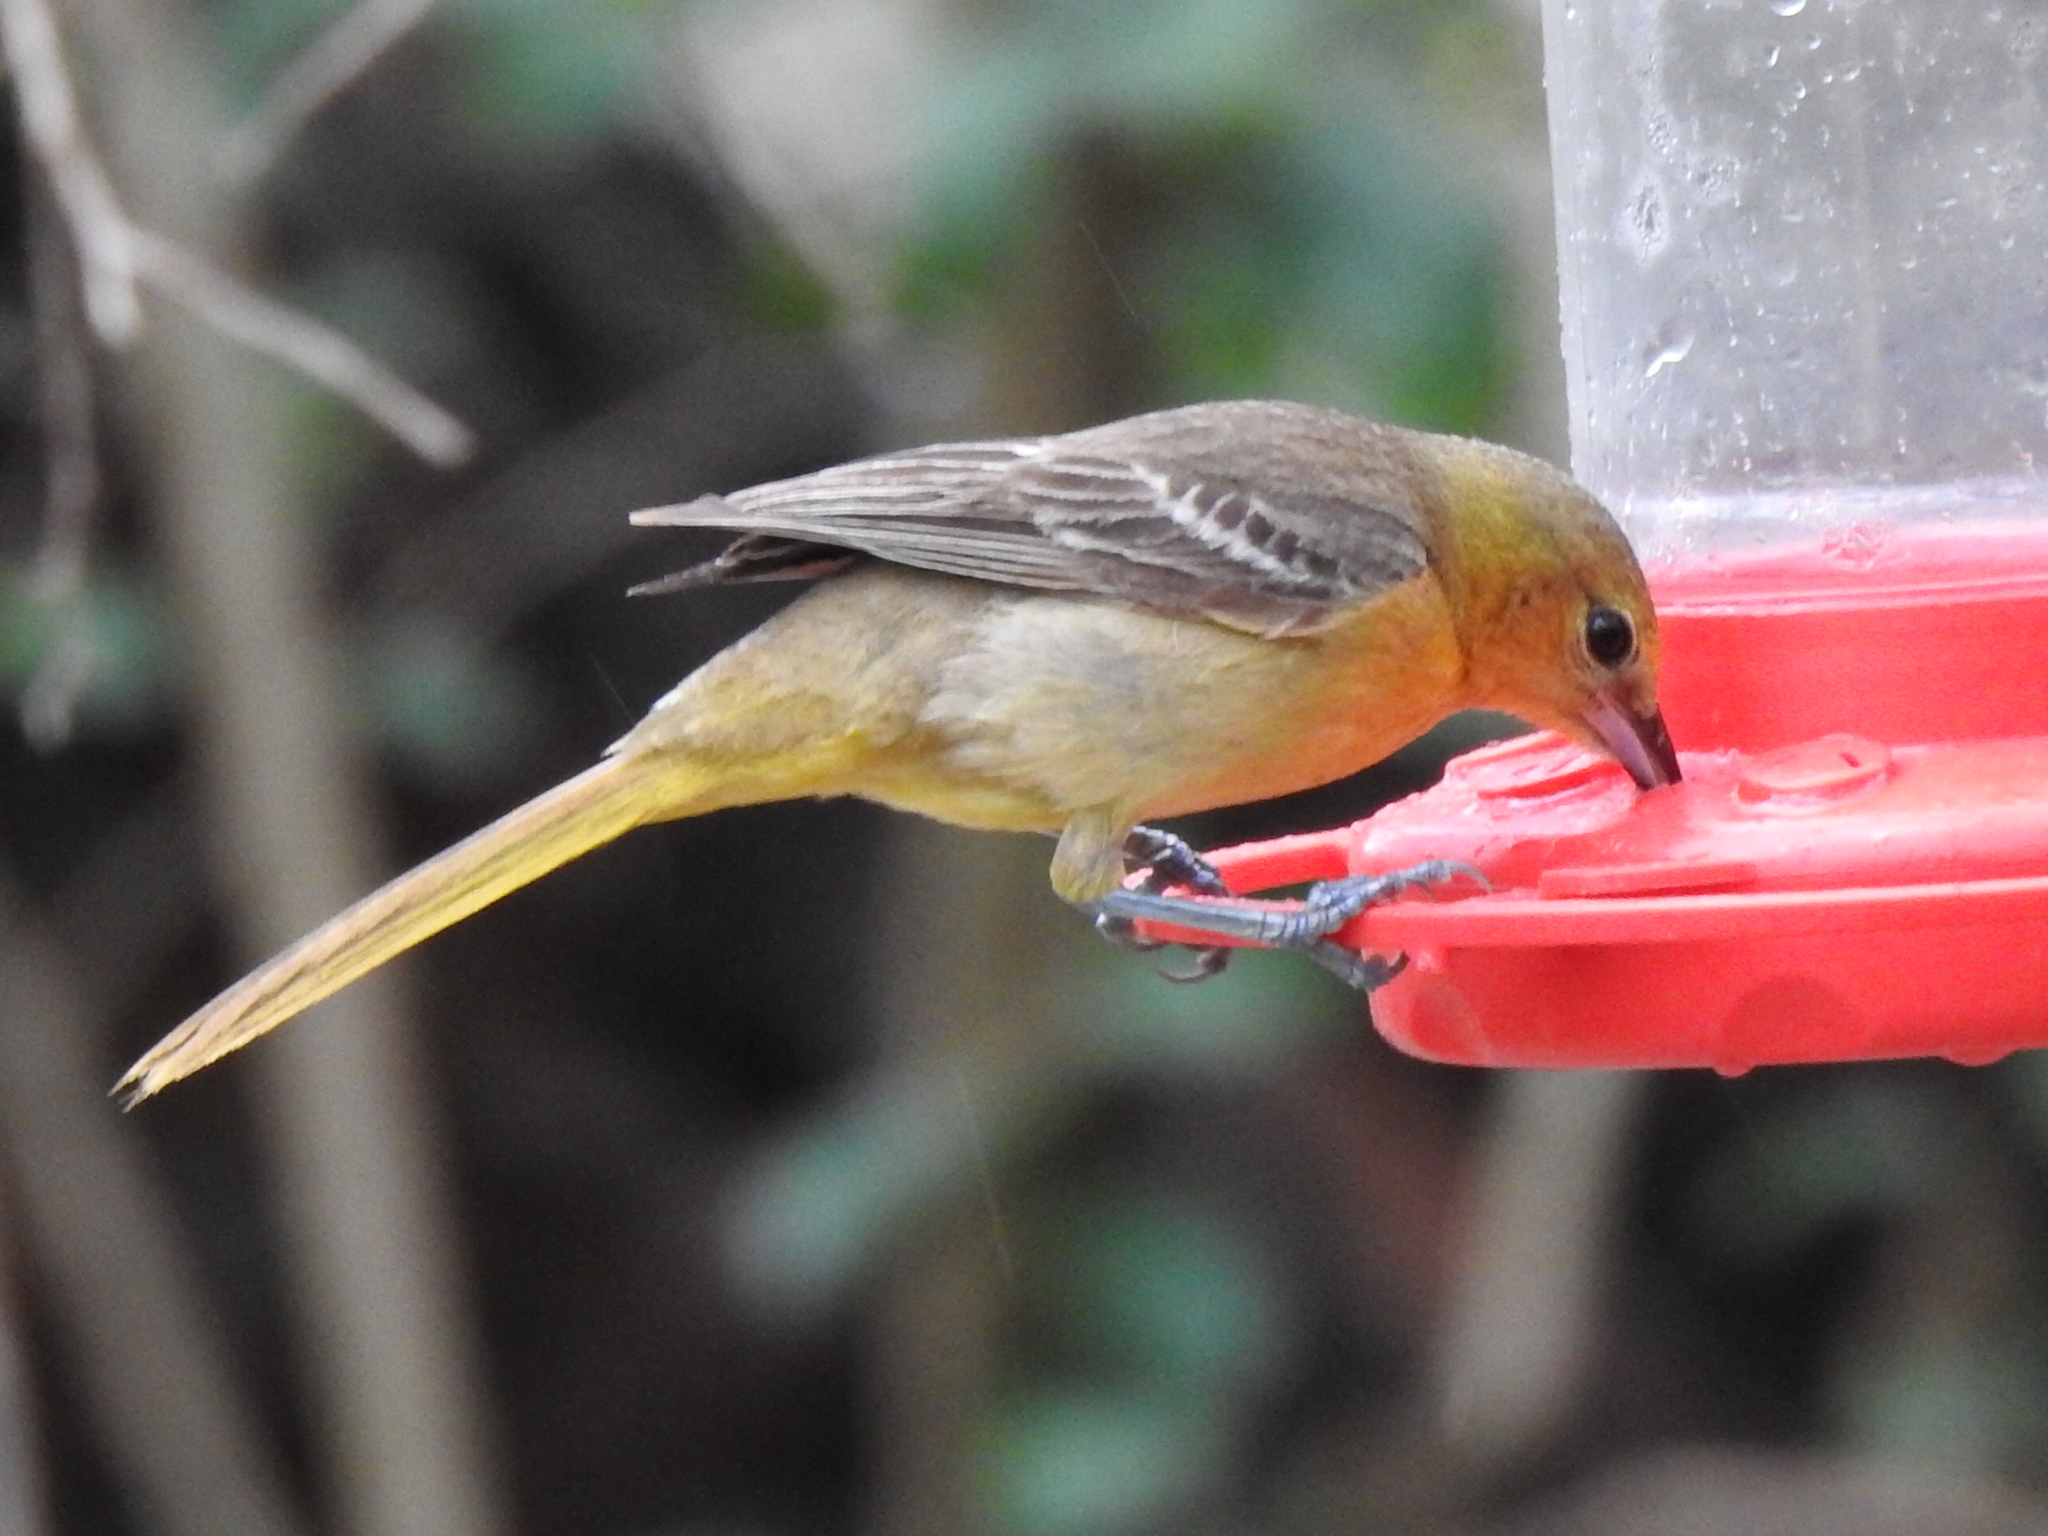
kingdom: Animalia
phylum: Chordata
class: Aves
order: Passeriformes
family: Icteridae
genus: Icterus
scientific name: Icterus cucullatus
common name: Hooded oriole
